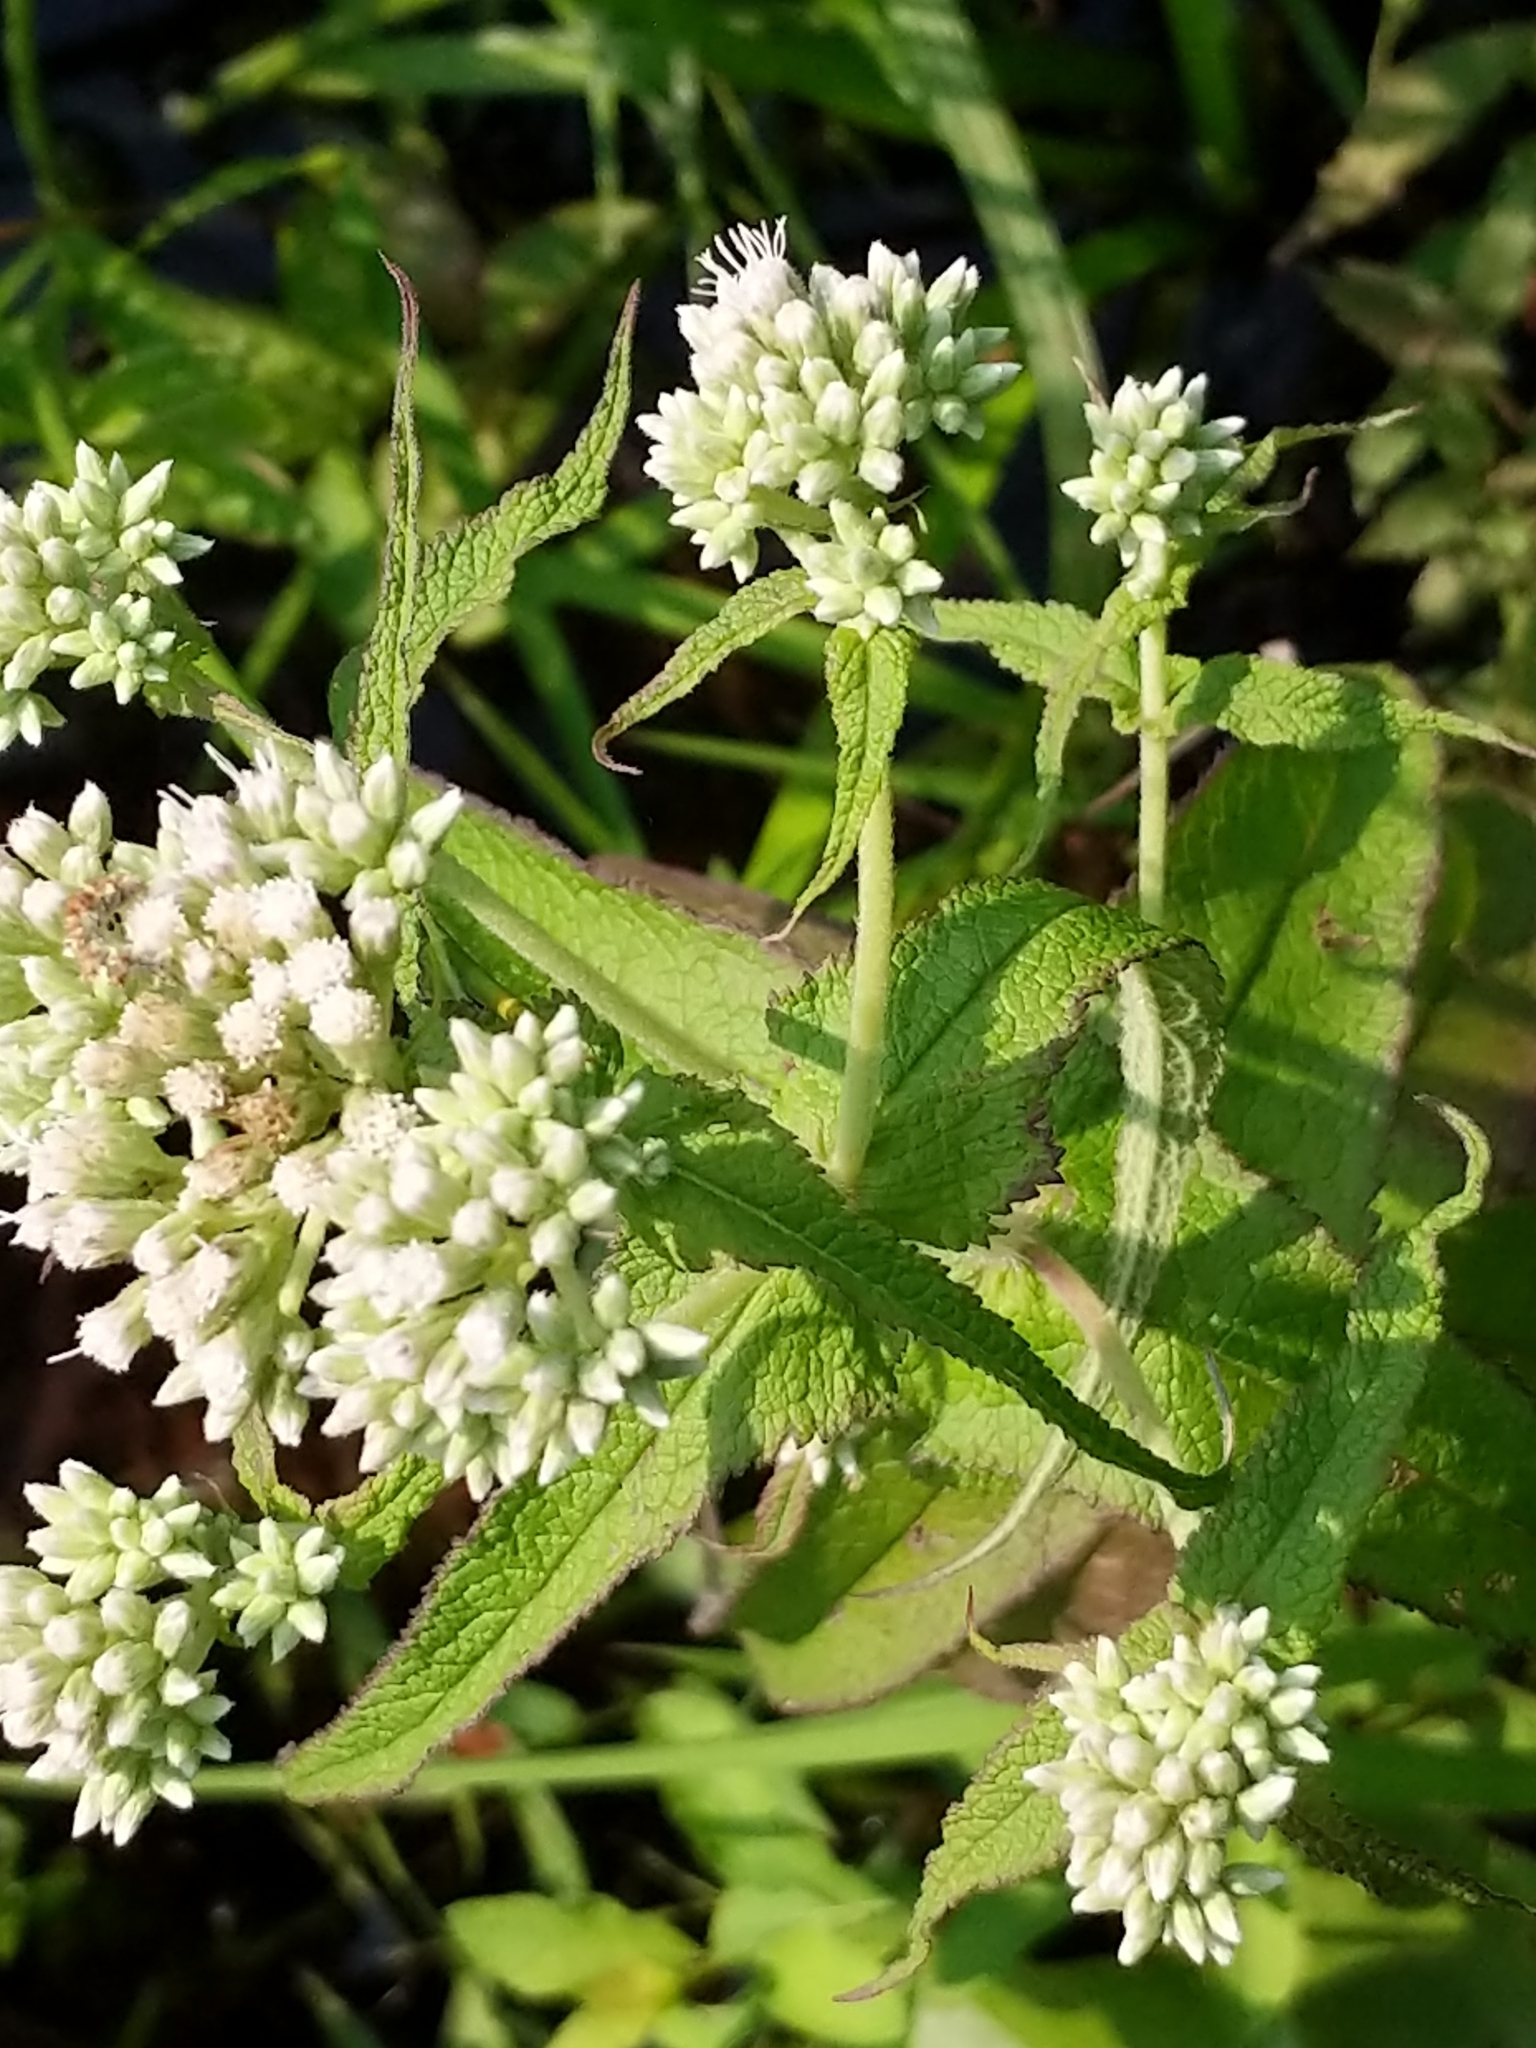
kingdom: Plantae
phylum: Tracheophyta
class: Magnoliopsida
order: Asterales
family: Asteraceae
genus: Eupatorium
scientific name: Eupatorium perfoliatum
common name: Boneset
